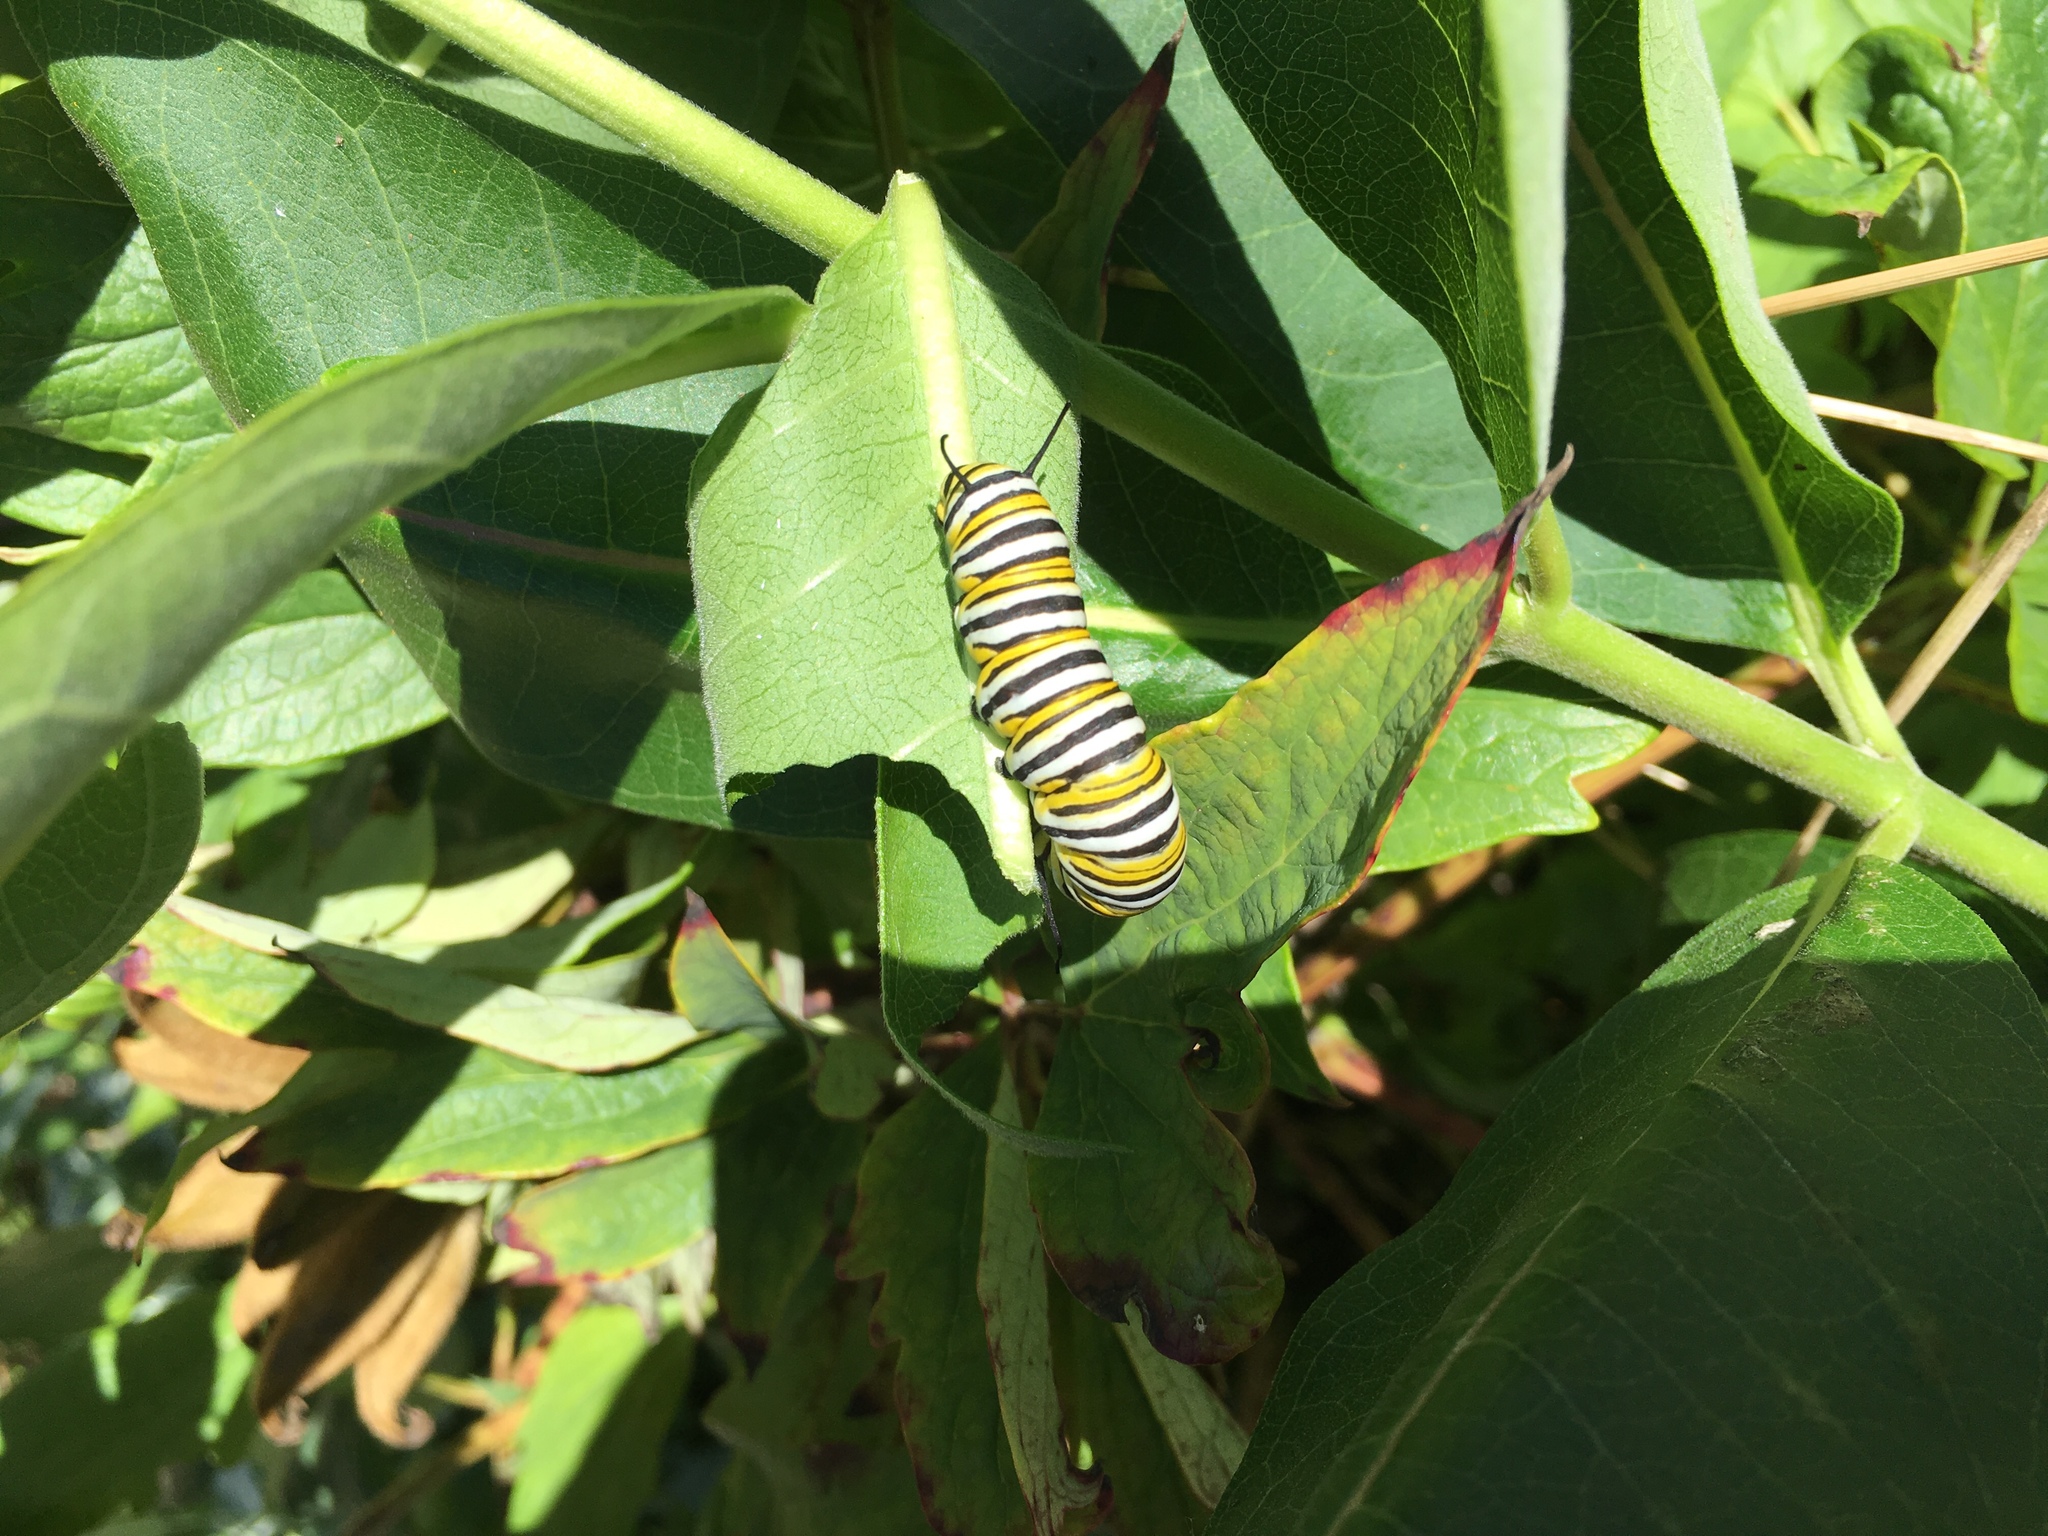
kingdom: Animalia
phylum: Arthropoda
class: Insecta
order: Lepidoptera
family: Nymphalidae
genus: Danaus
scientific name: Danaus plexippus
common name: Monarch
